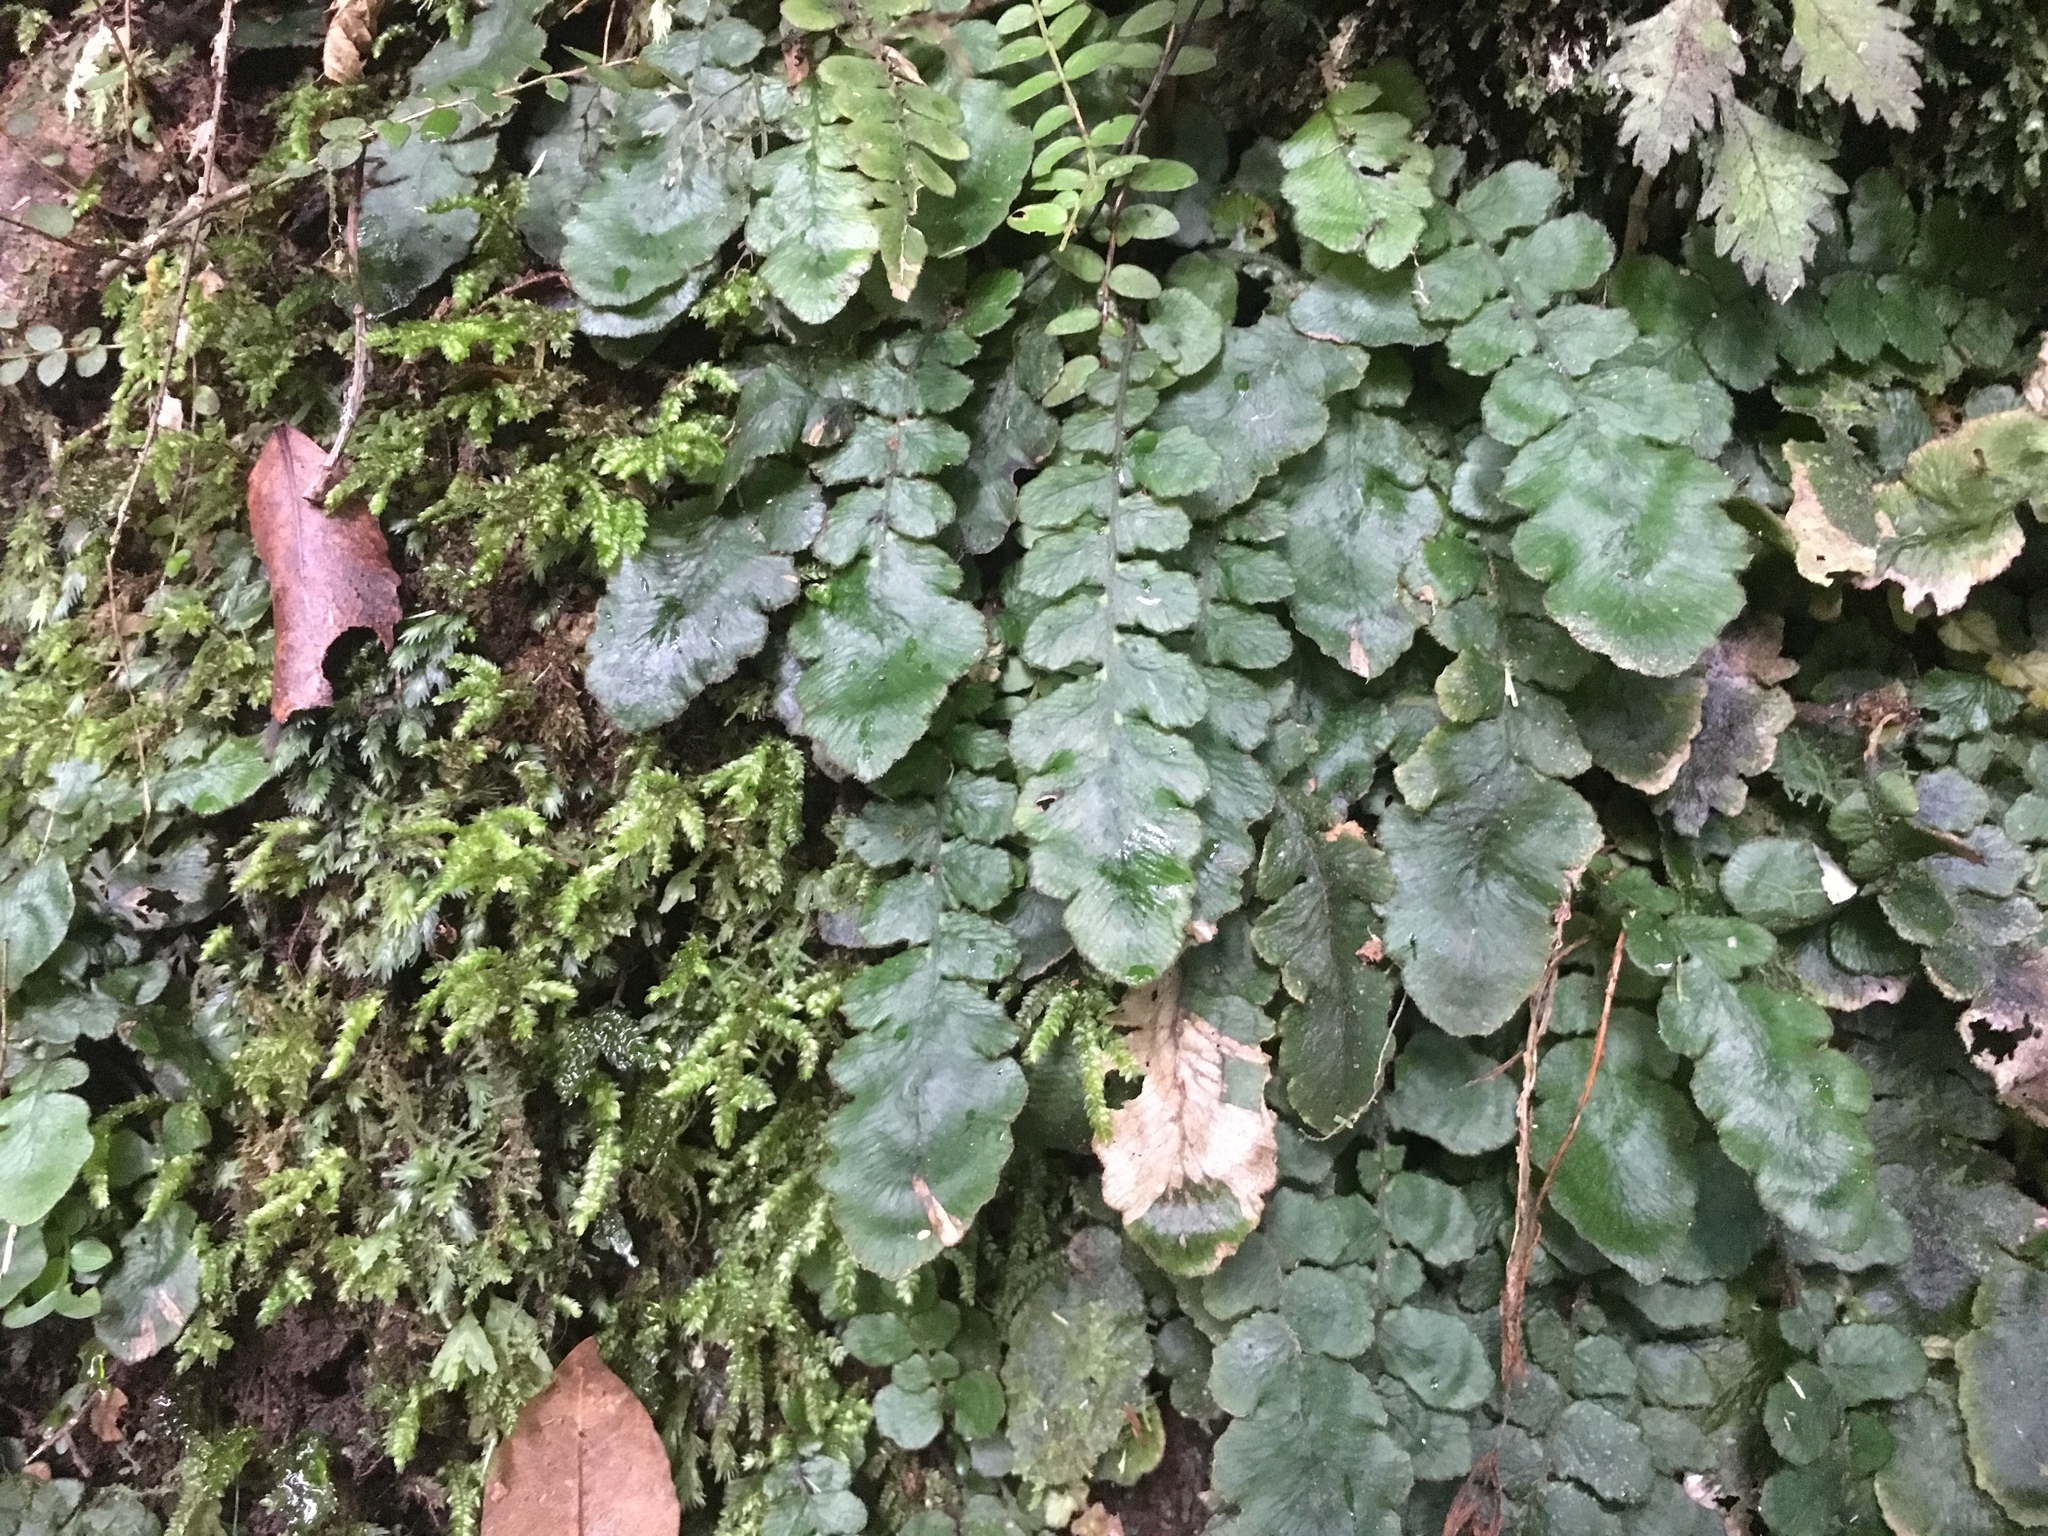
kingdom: Plantae
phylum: Tracheophyta
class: Polypodiopsida
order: Polypodiales
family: Blechnaceae
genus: Cranfillia
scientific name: Cranfillia nigra
